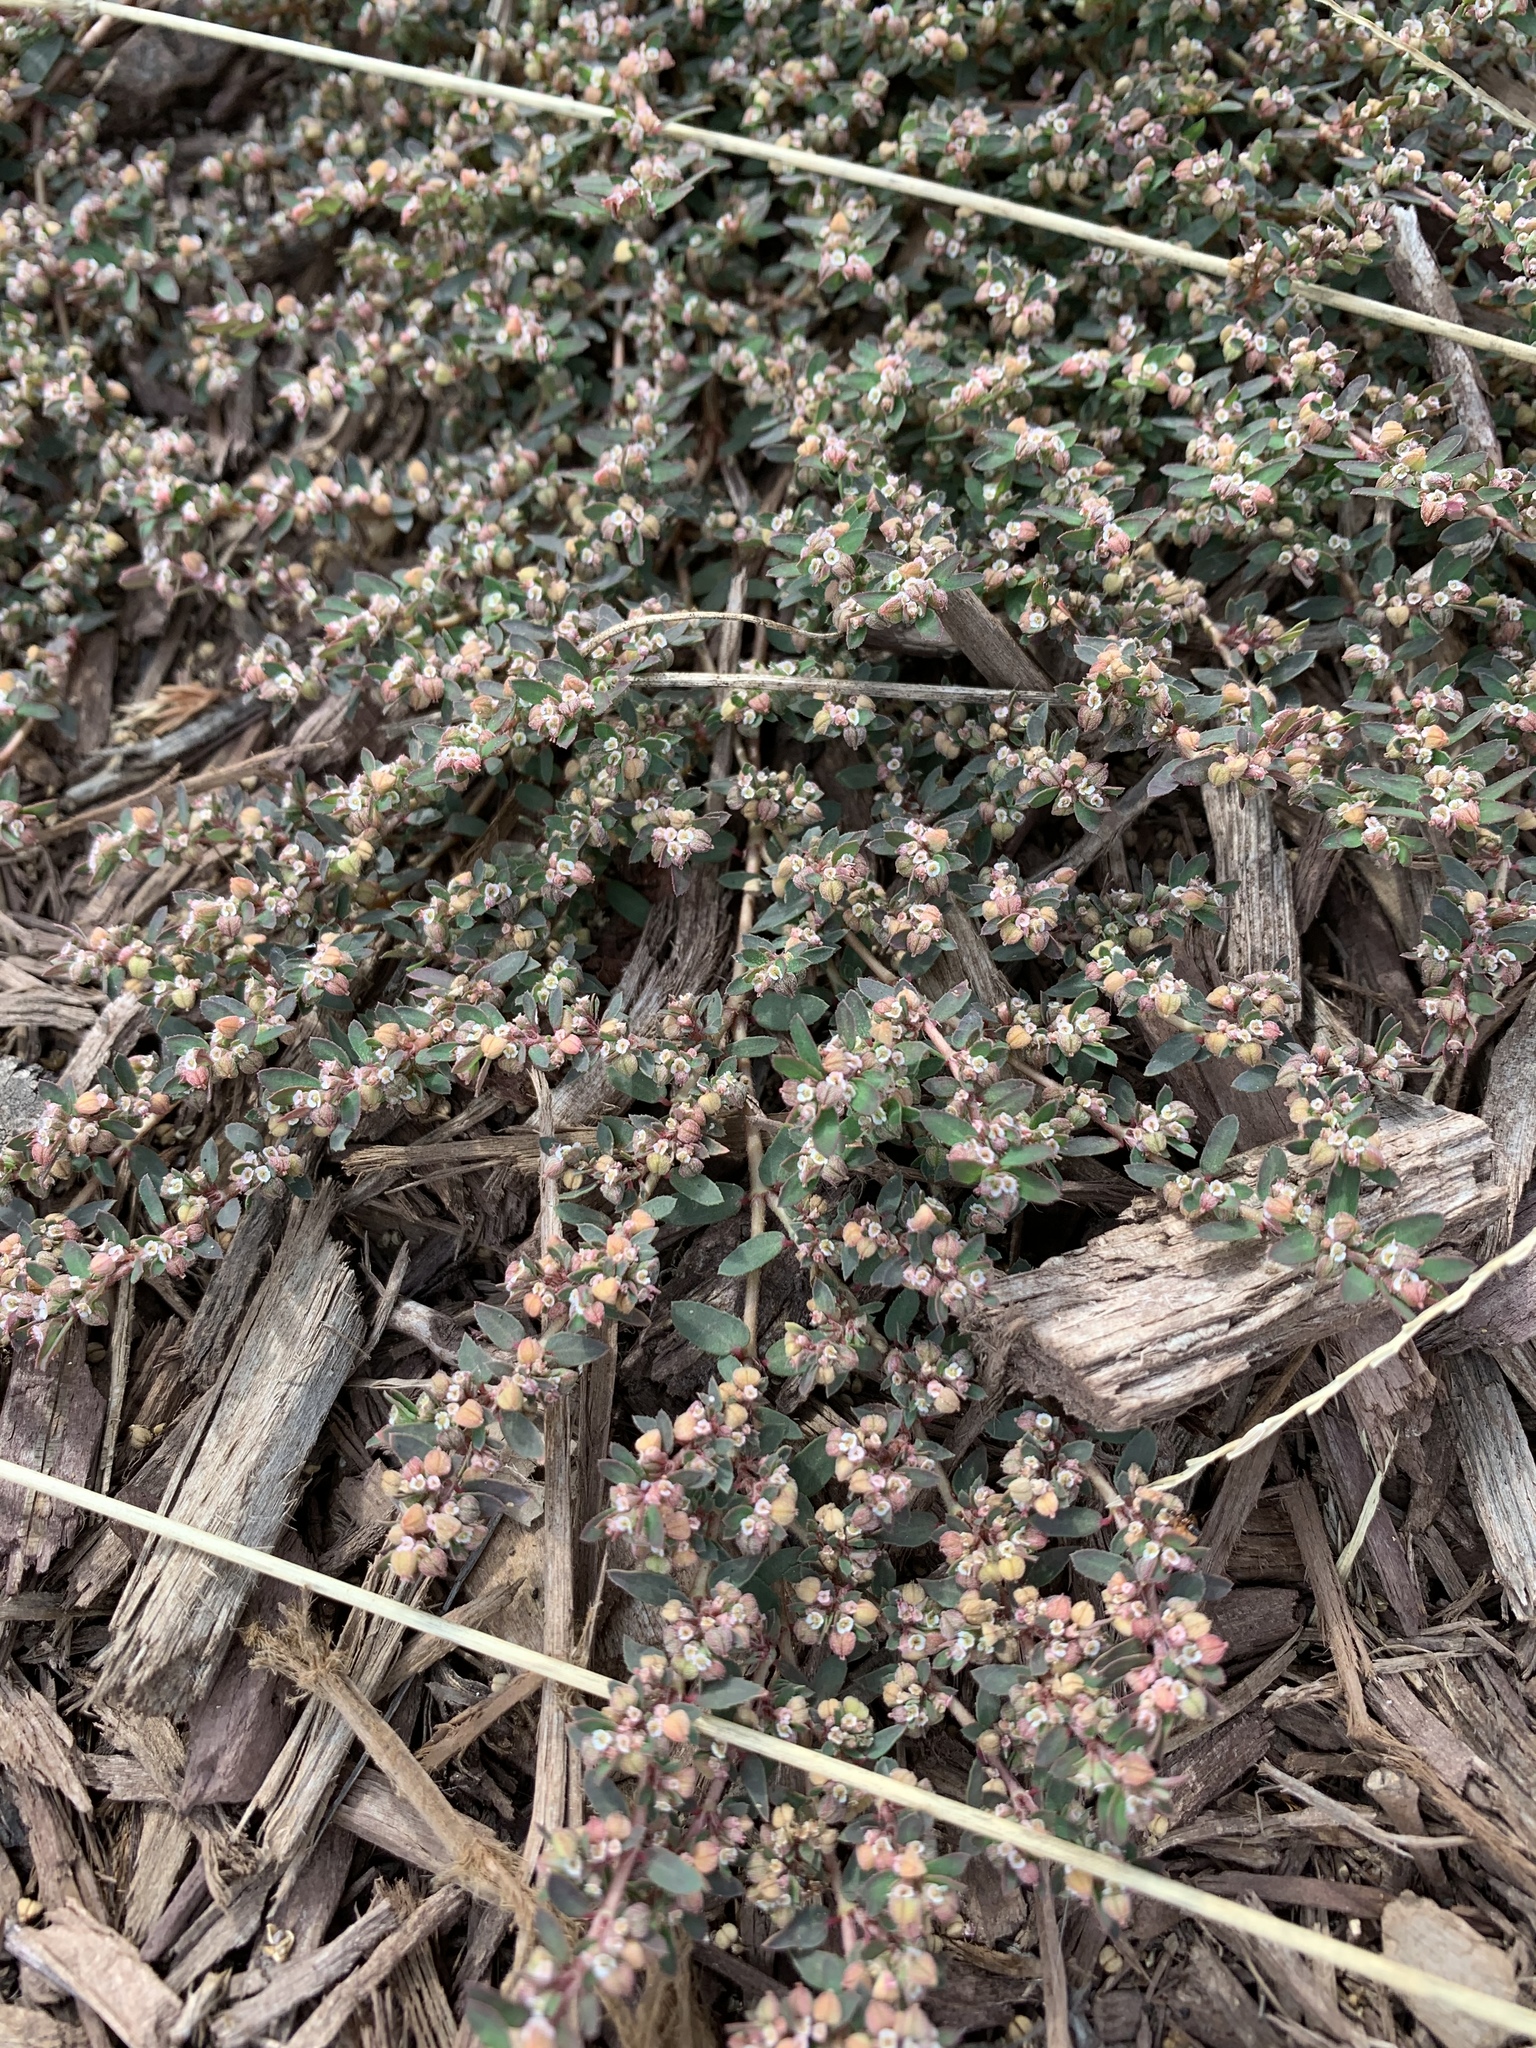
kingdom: Plantae
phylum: Tracheophyta
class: Magnoliopsida
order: Malpighiales
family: Euphorbiaceae
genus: Euphorbia
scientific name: Euphorbia maculata
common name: Spotted spurge
